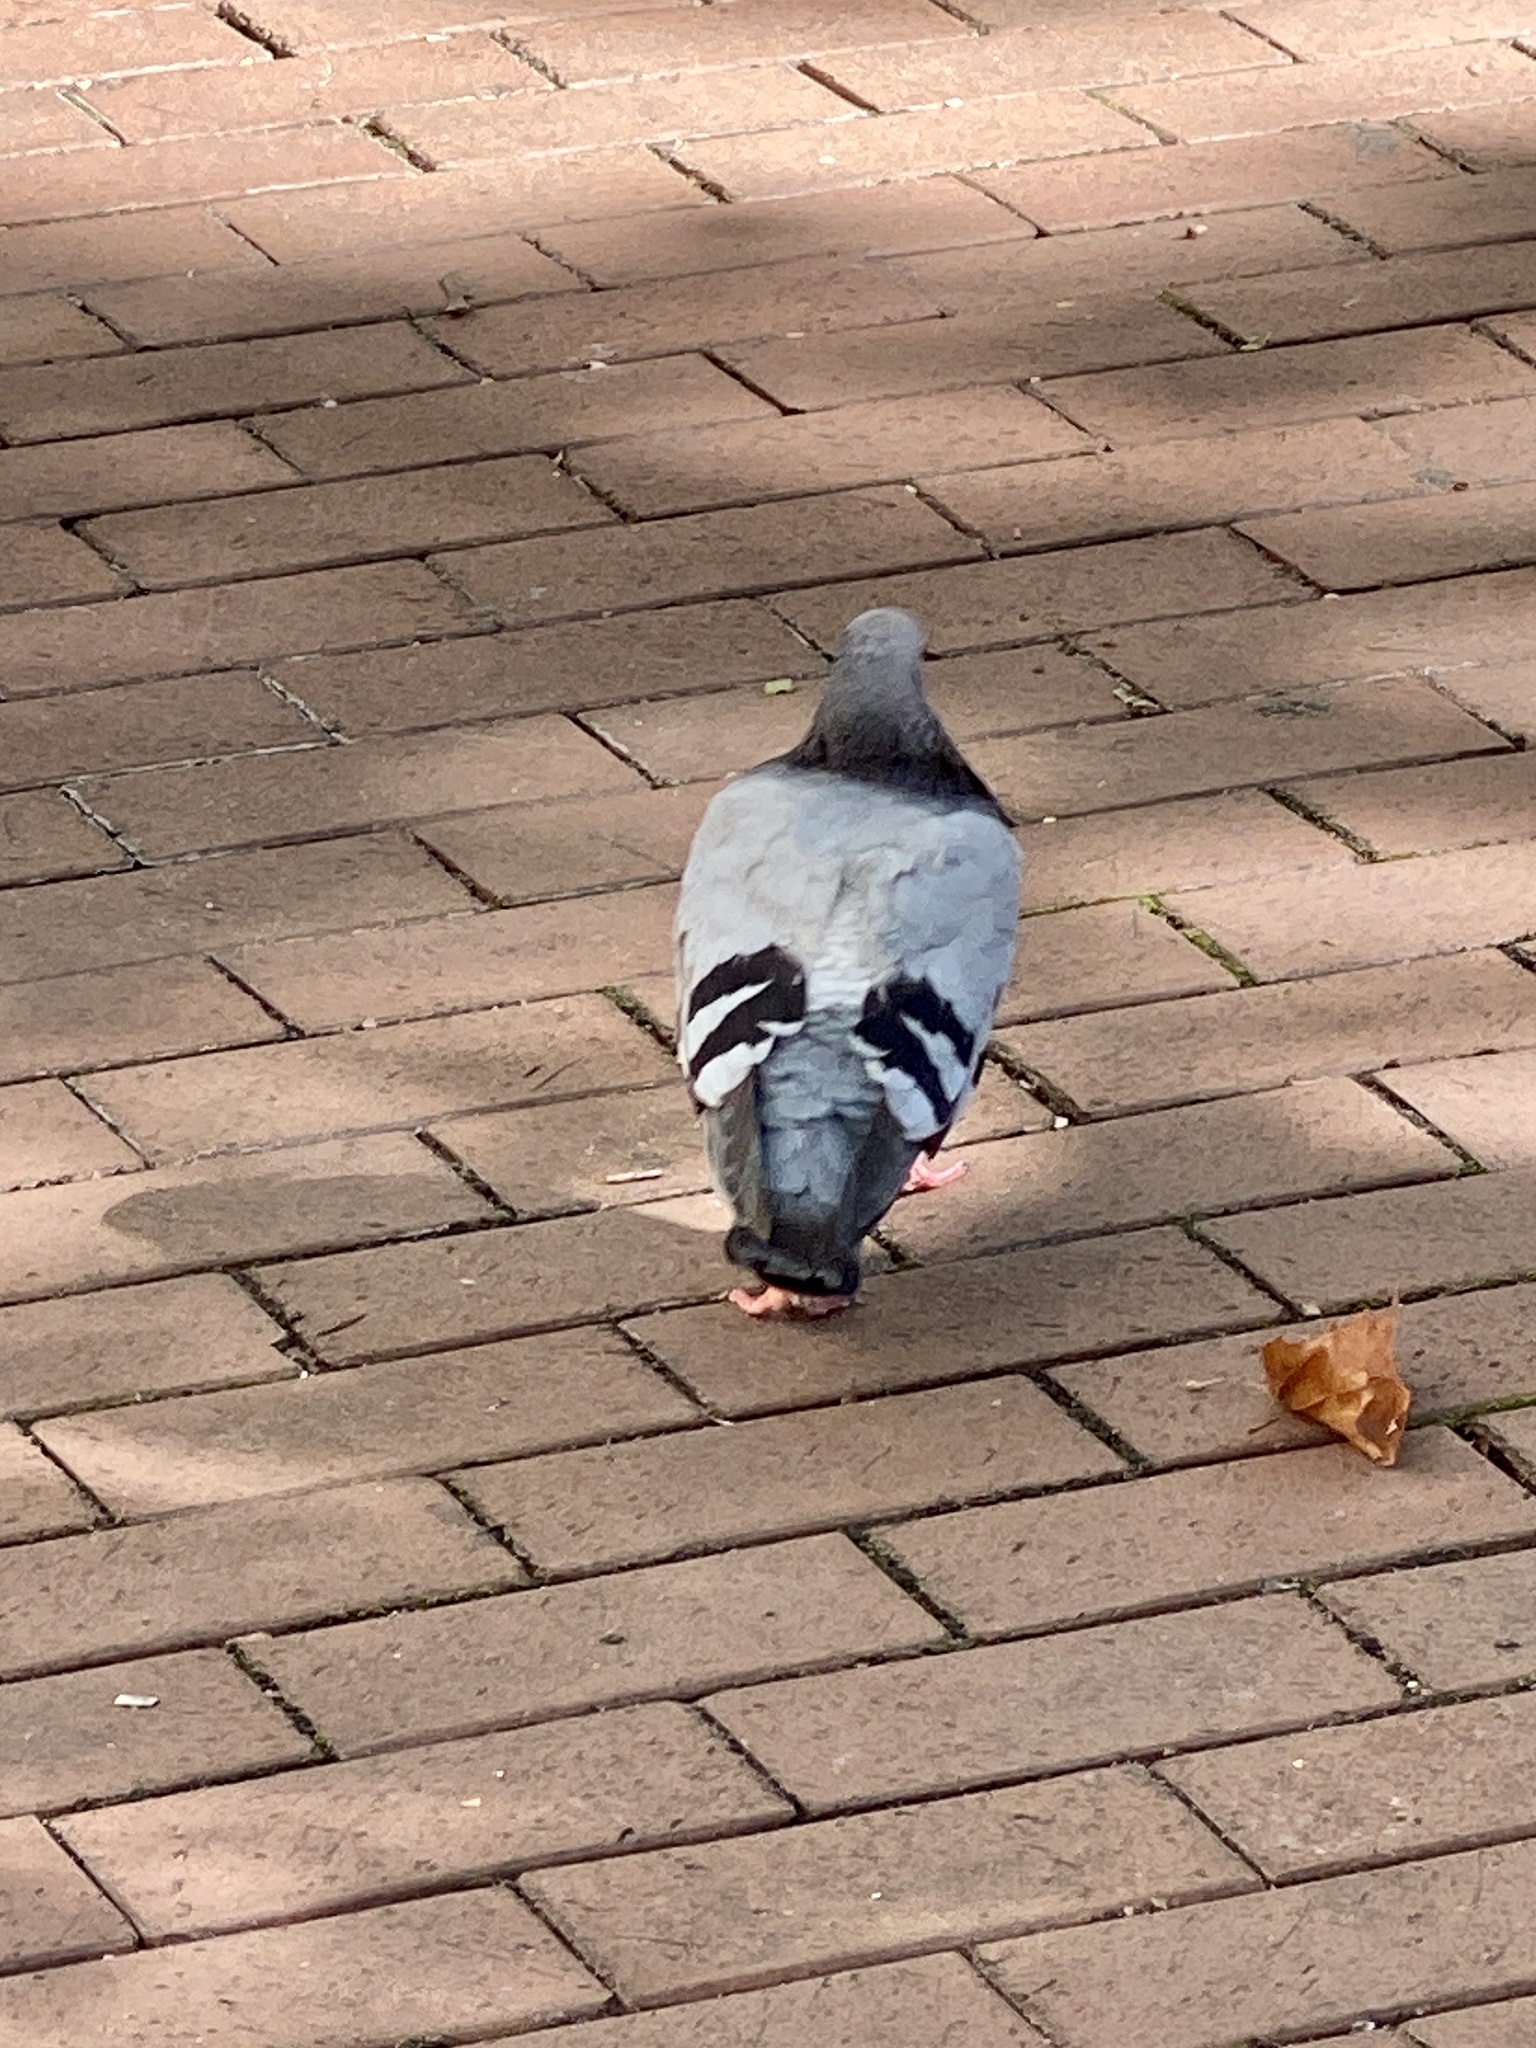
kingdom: Animalia
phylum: Chordata
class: Aves
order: Columbiformes
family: Columbidae
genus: Columba
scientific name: Columba livia
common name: Rock pigeon
